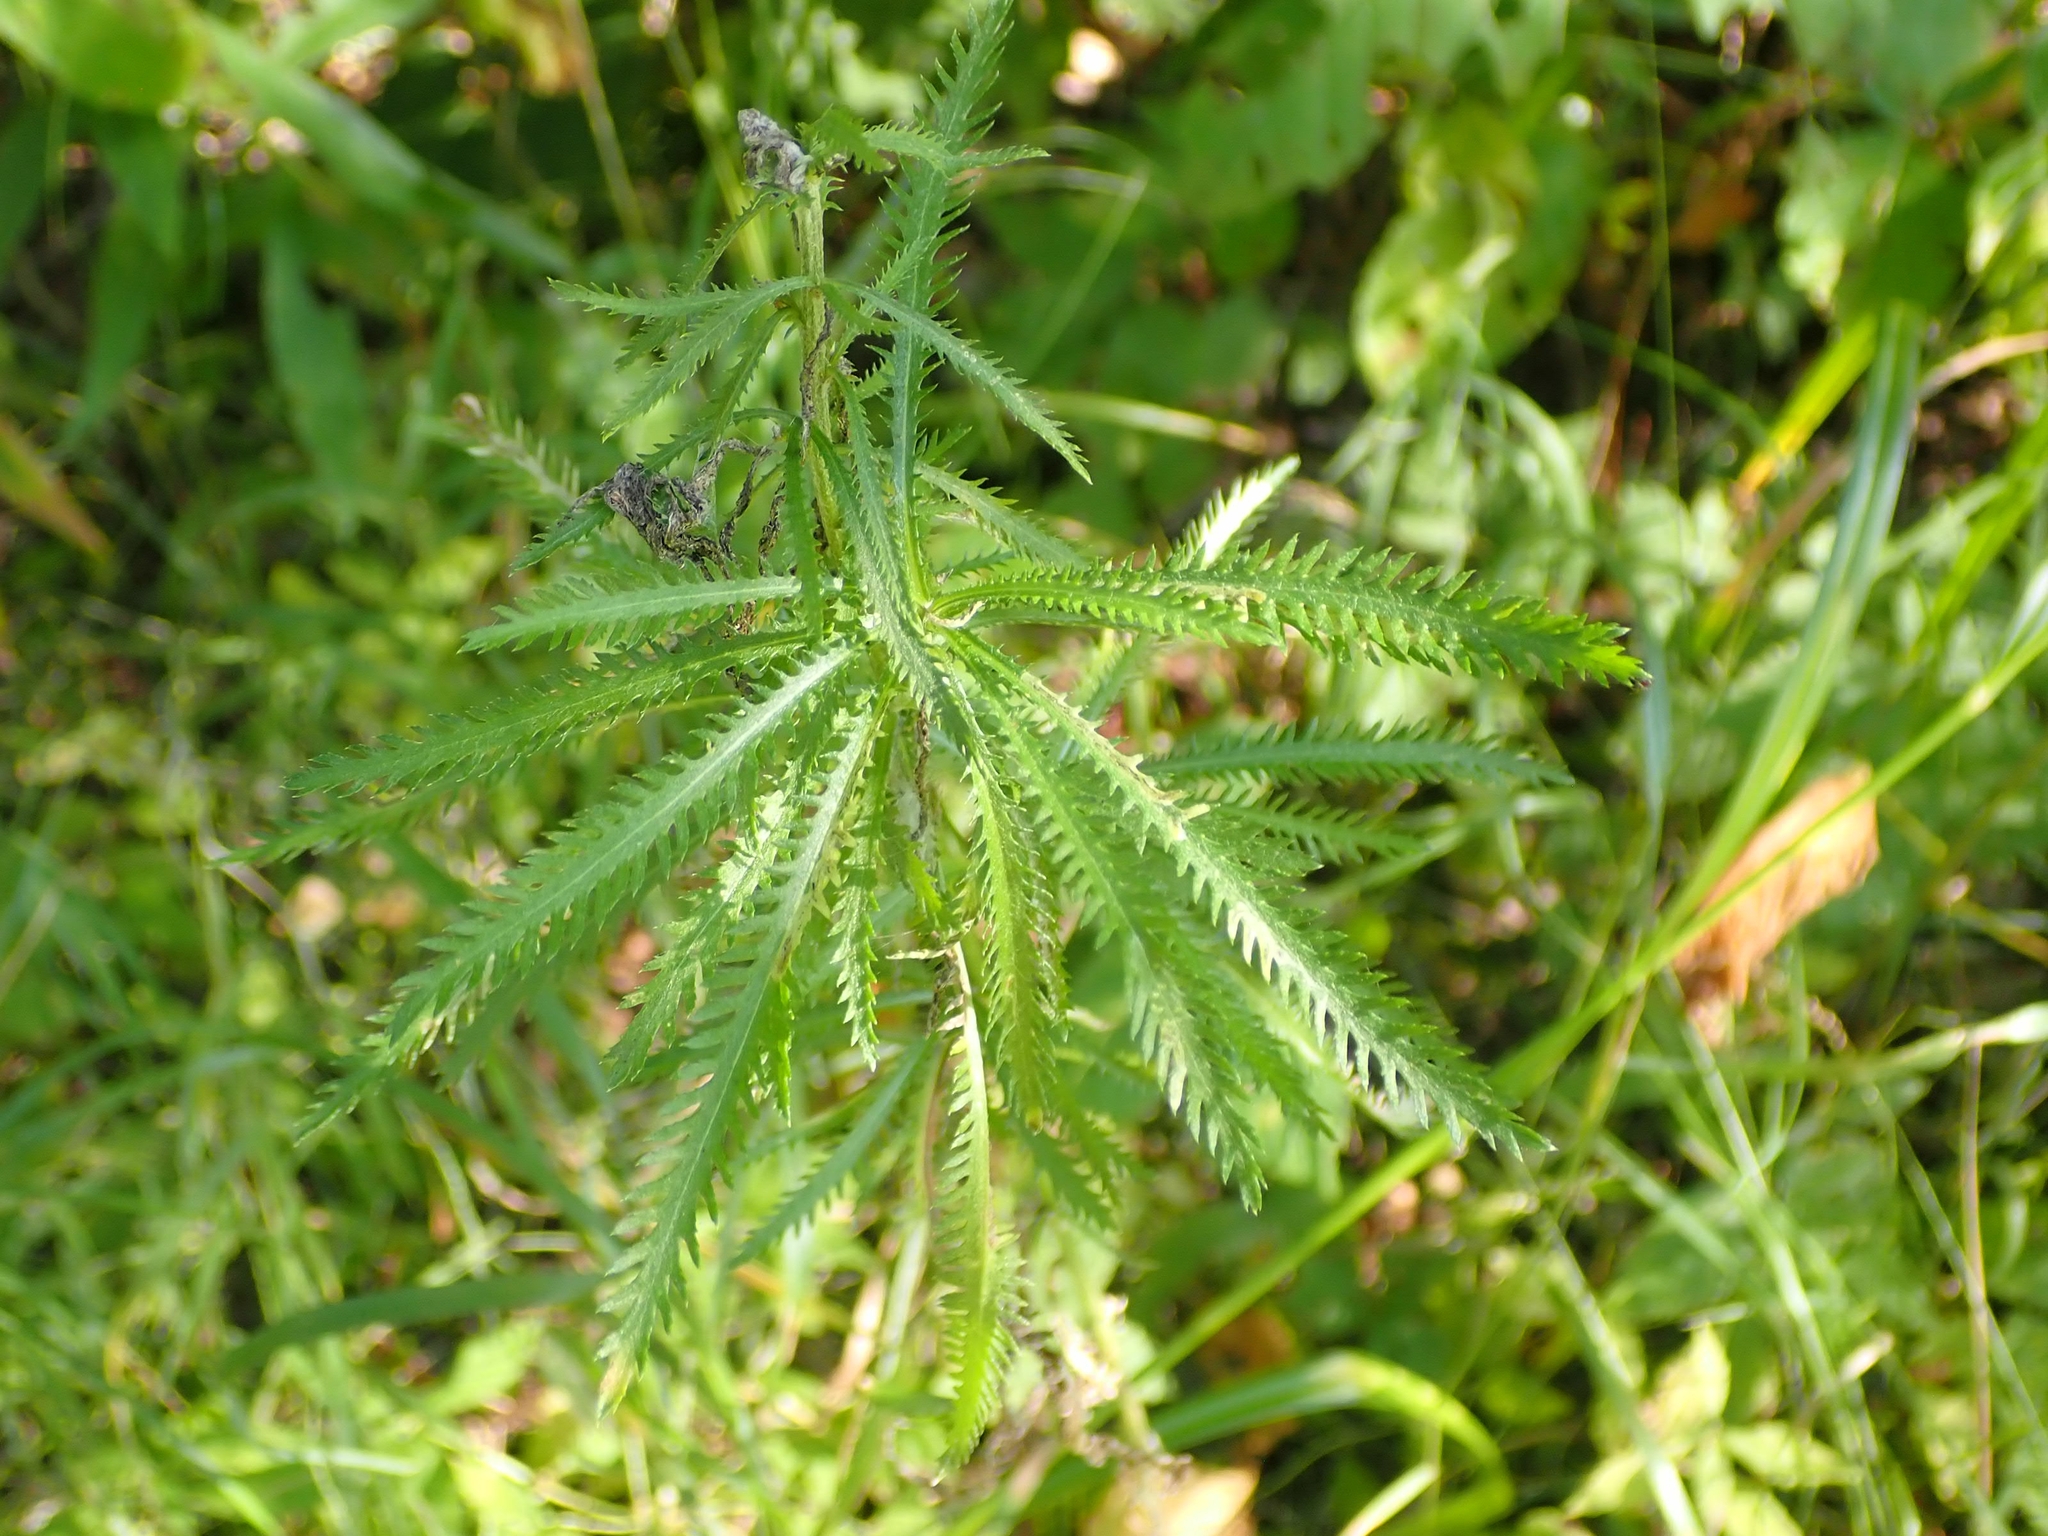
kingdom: Plantae
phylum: Tracheophyta
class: Magnoliopsida
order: Asterales
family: Asteraceae
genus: Achillea
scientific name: Achillea alpina
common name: Siberian yarrow
